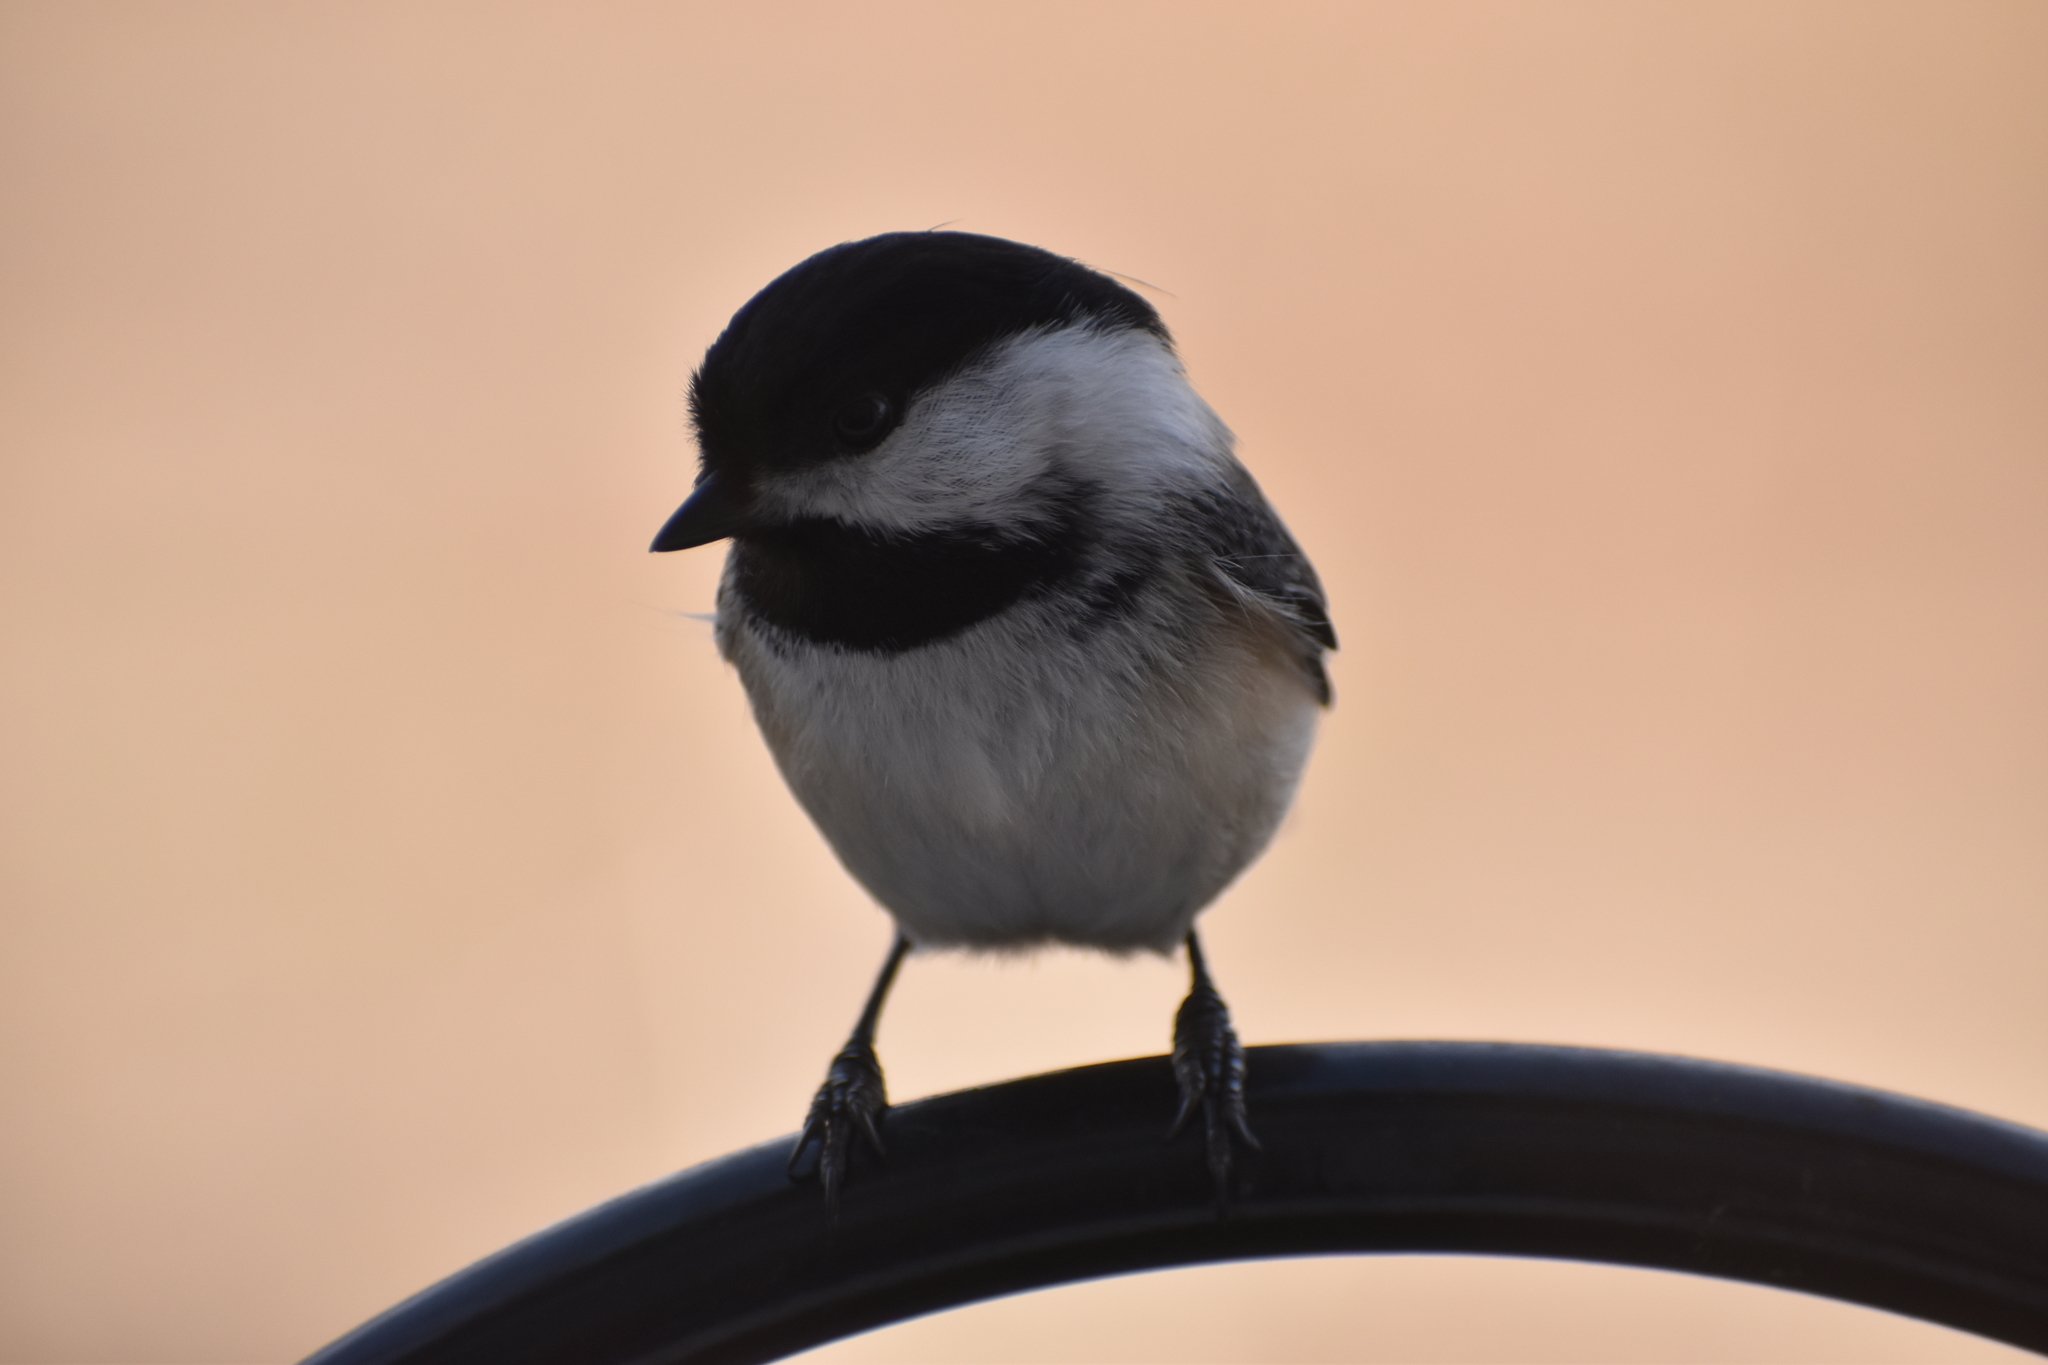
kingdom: Animalia
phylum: Chordata
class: Aves
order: Passeriformes
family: Paridae
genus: Poecile
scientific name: Poecile atricapillus
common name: Black-capped chickadee
